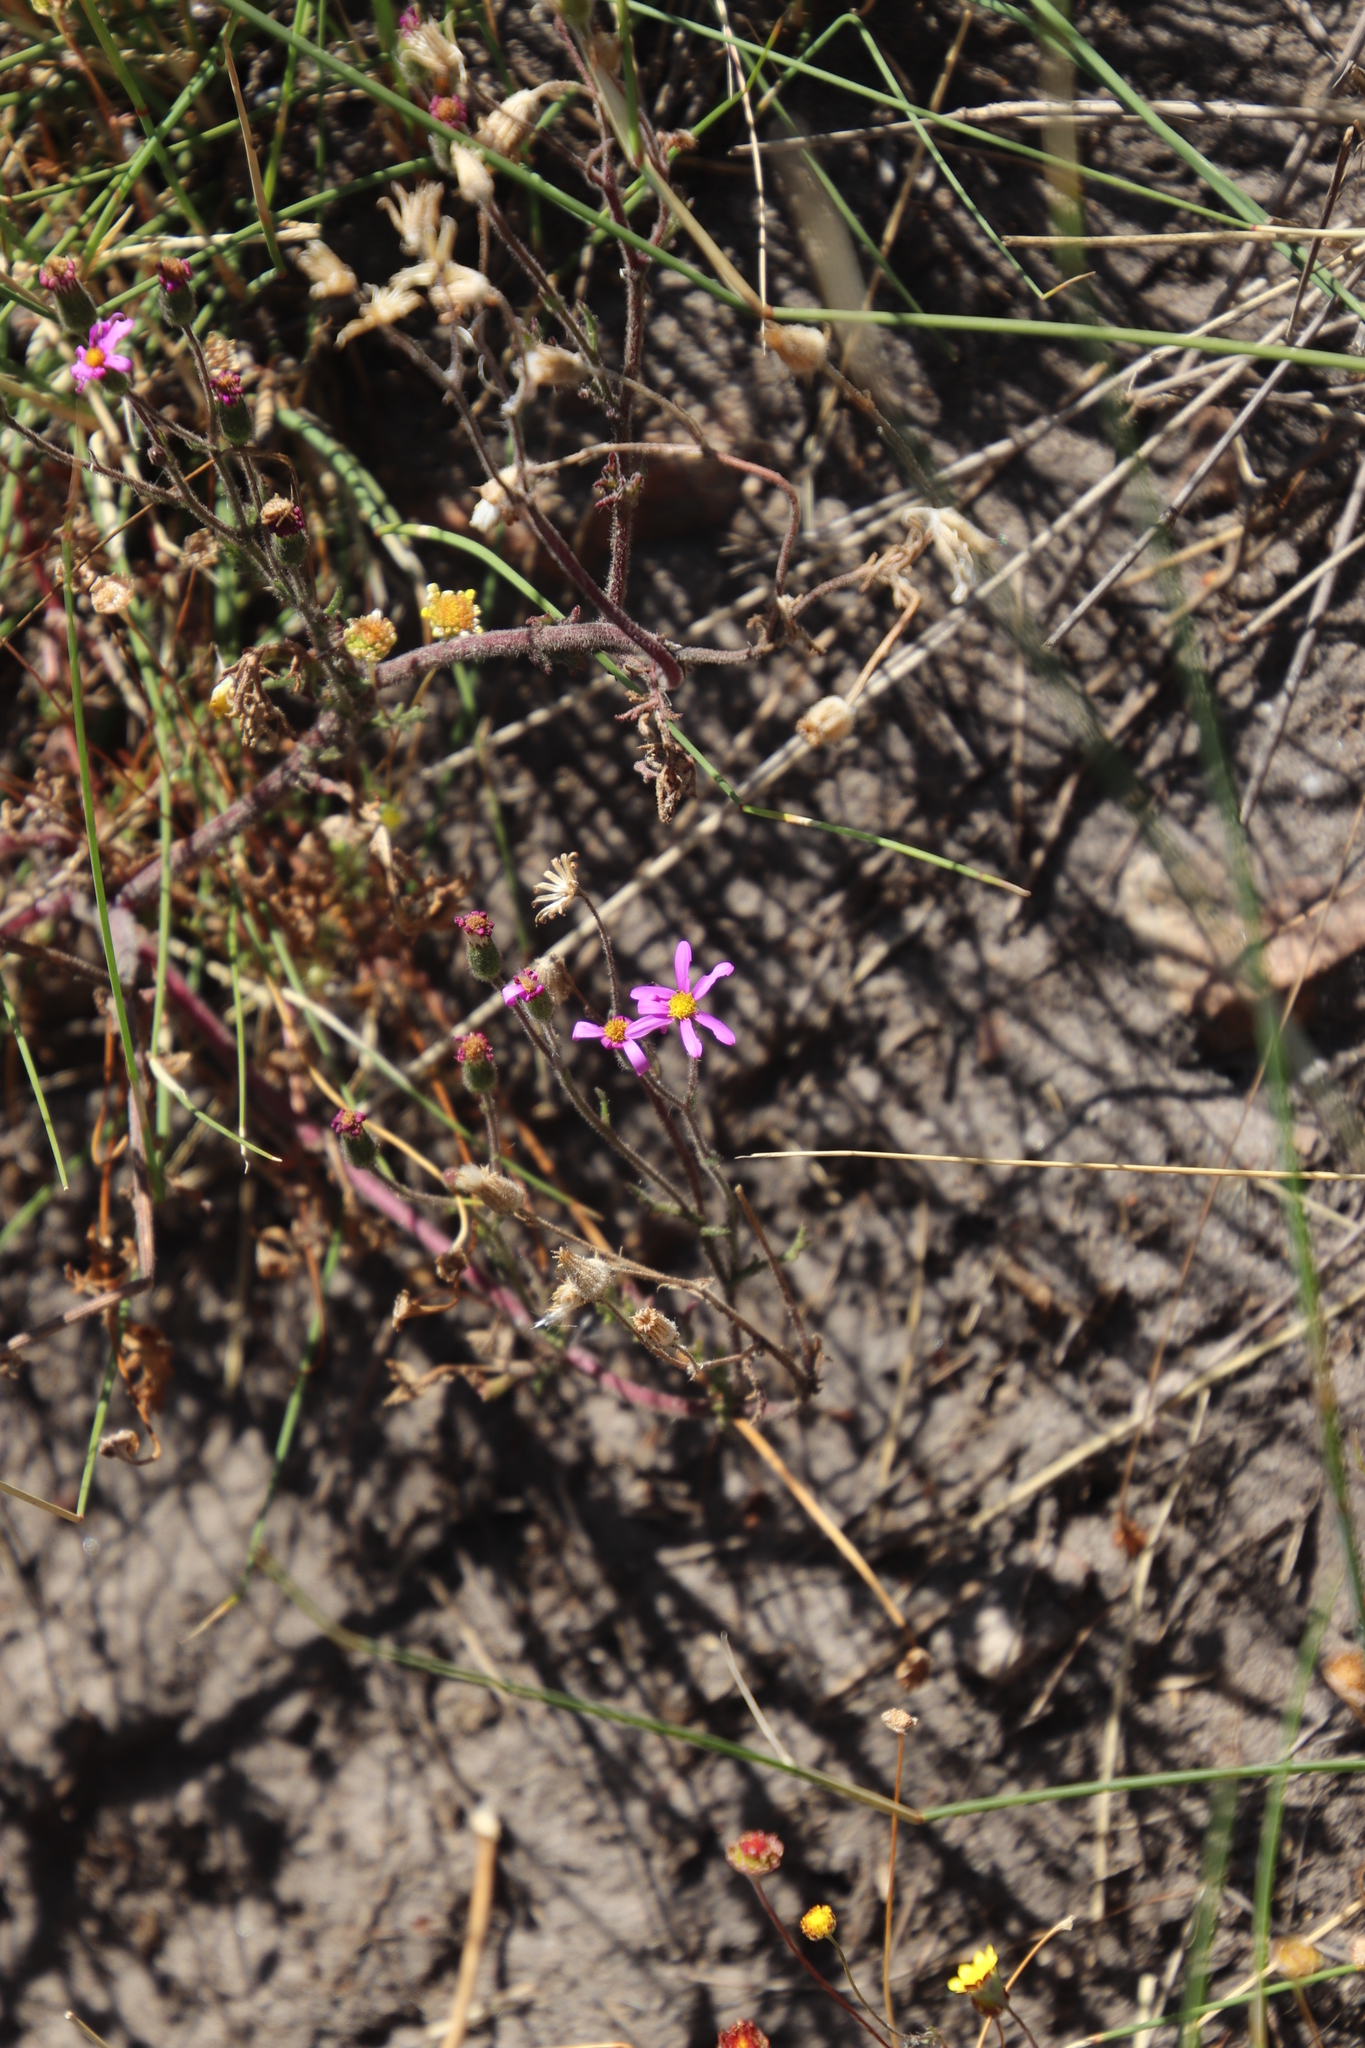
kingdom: Plantae
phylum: Tracheophyta
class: Magnoliopsida
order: Asterales
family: Asteraceae
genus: Senecio
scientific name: Senecio arenarius
